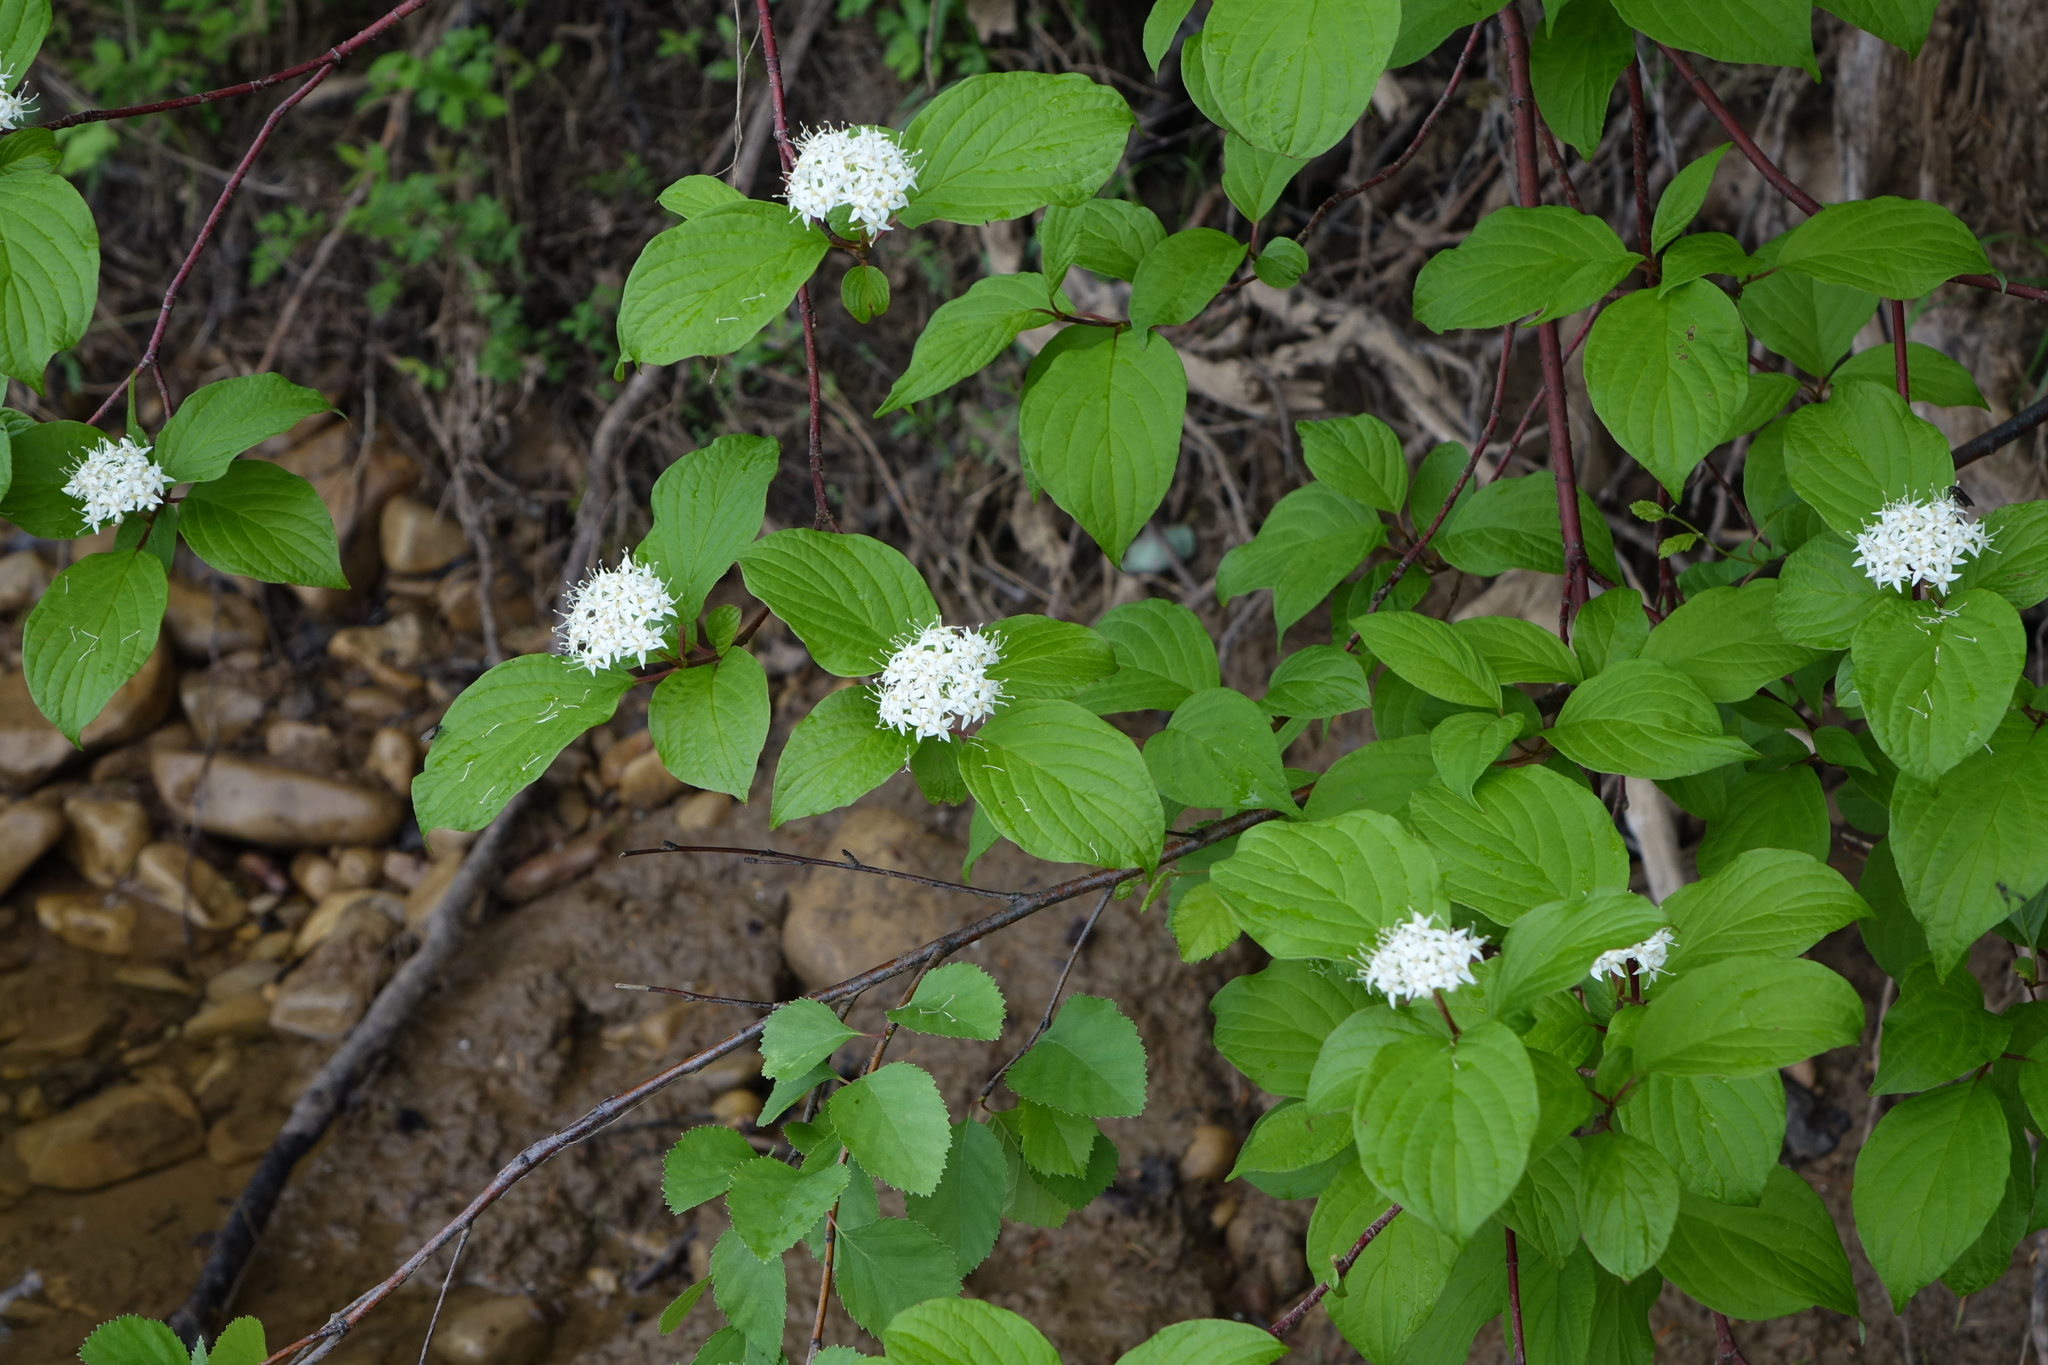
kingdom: Plantae
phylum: Tracheophyta
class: Magnoliopsida
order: Cornales
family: Cornaceae
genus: Cornus
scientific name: Cornus alba
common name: White dogwood
